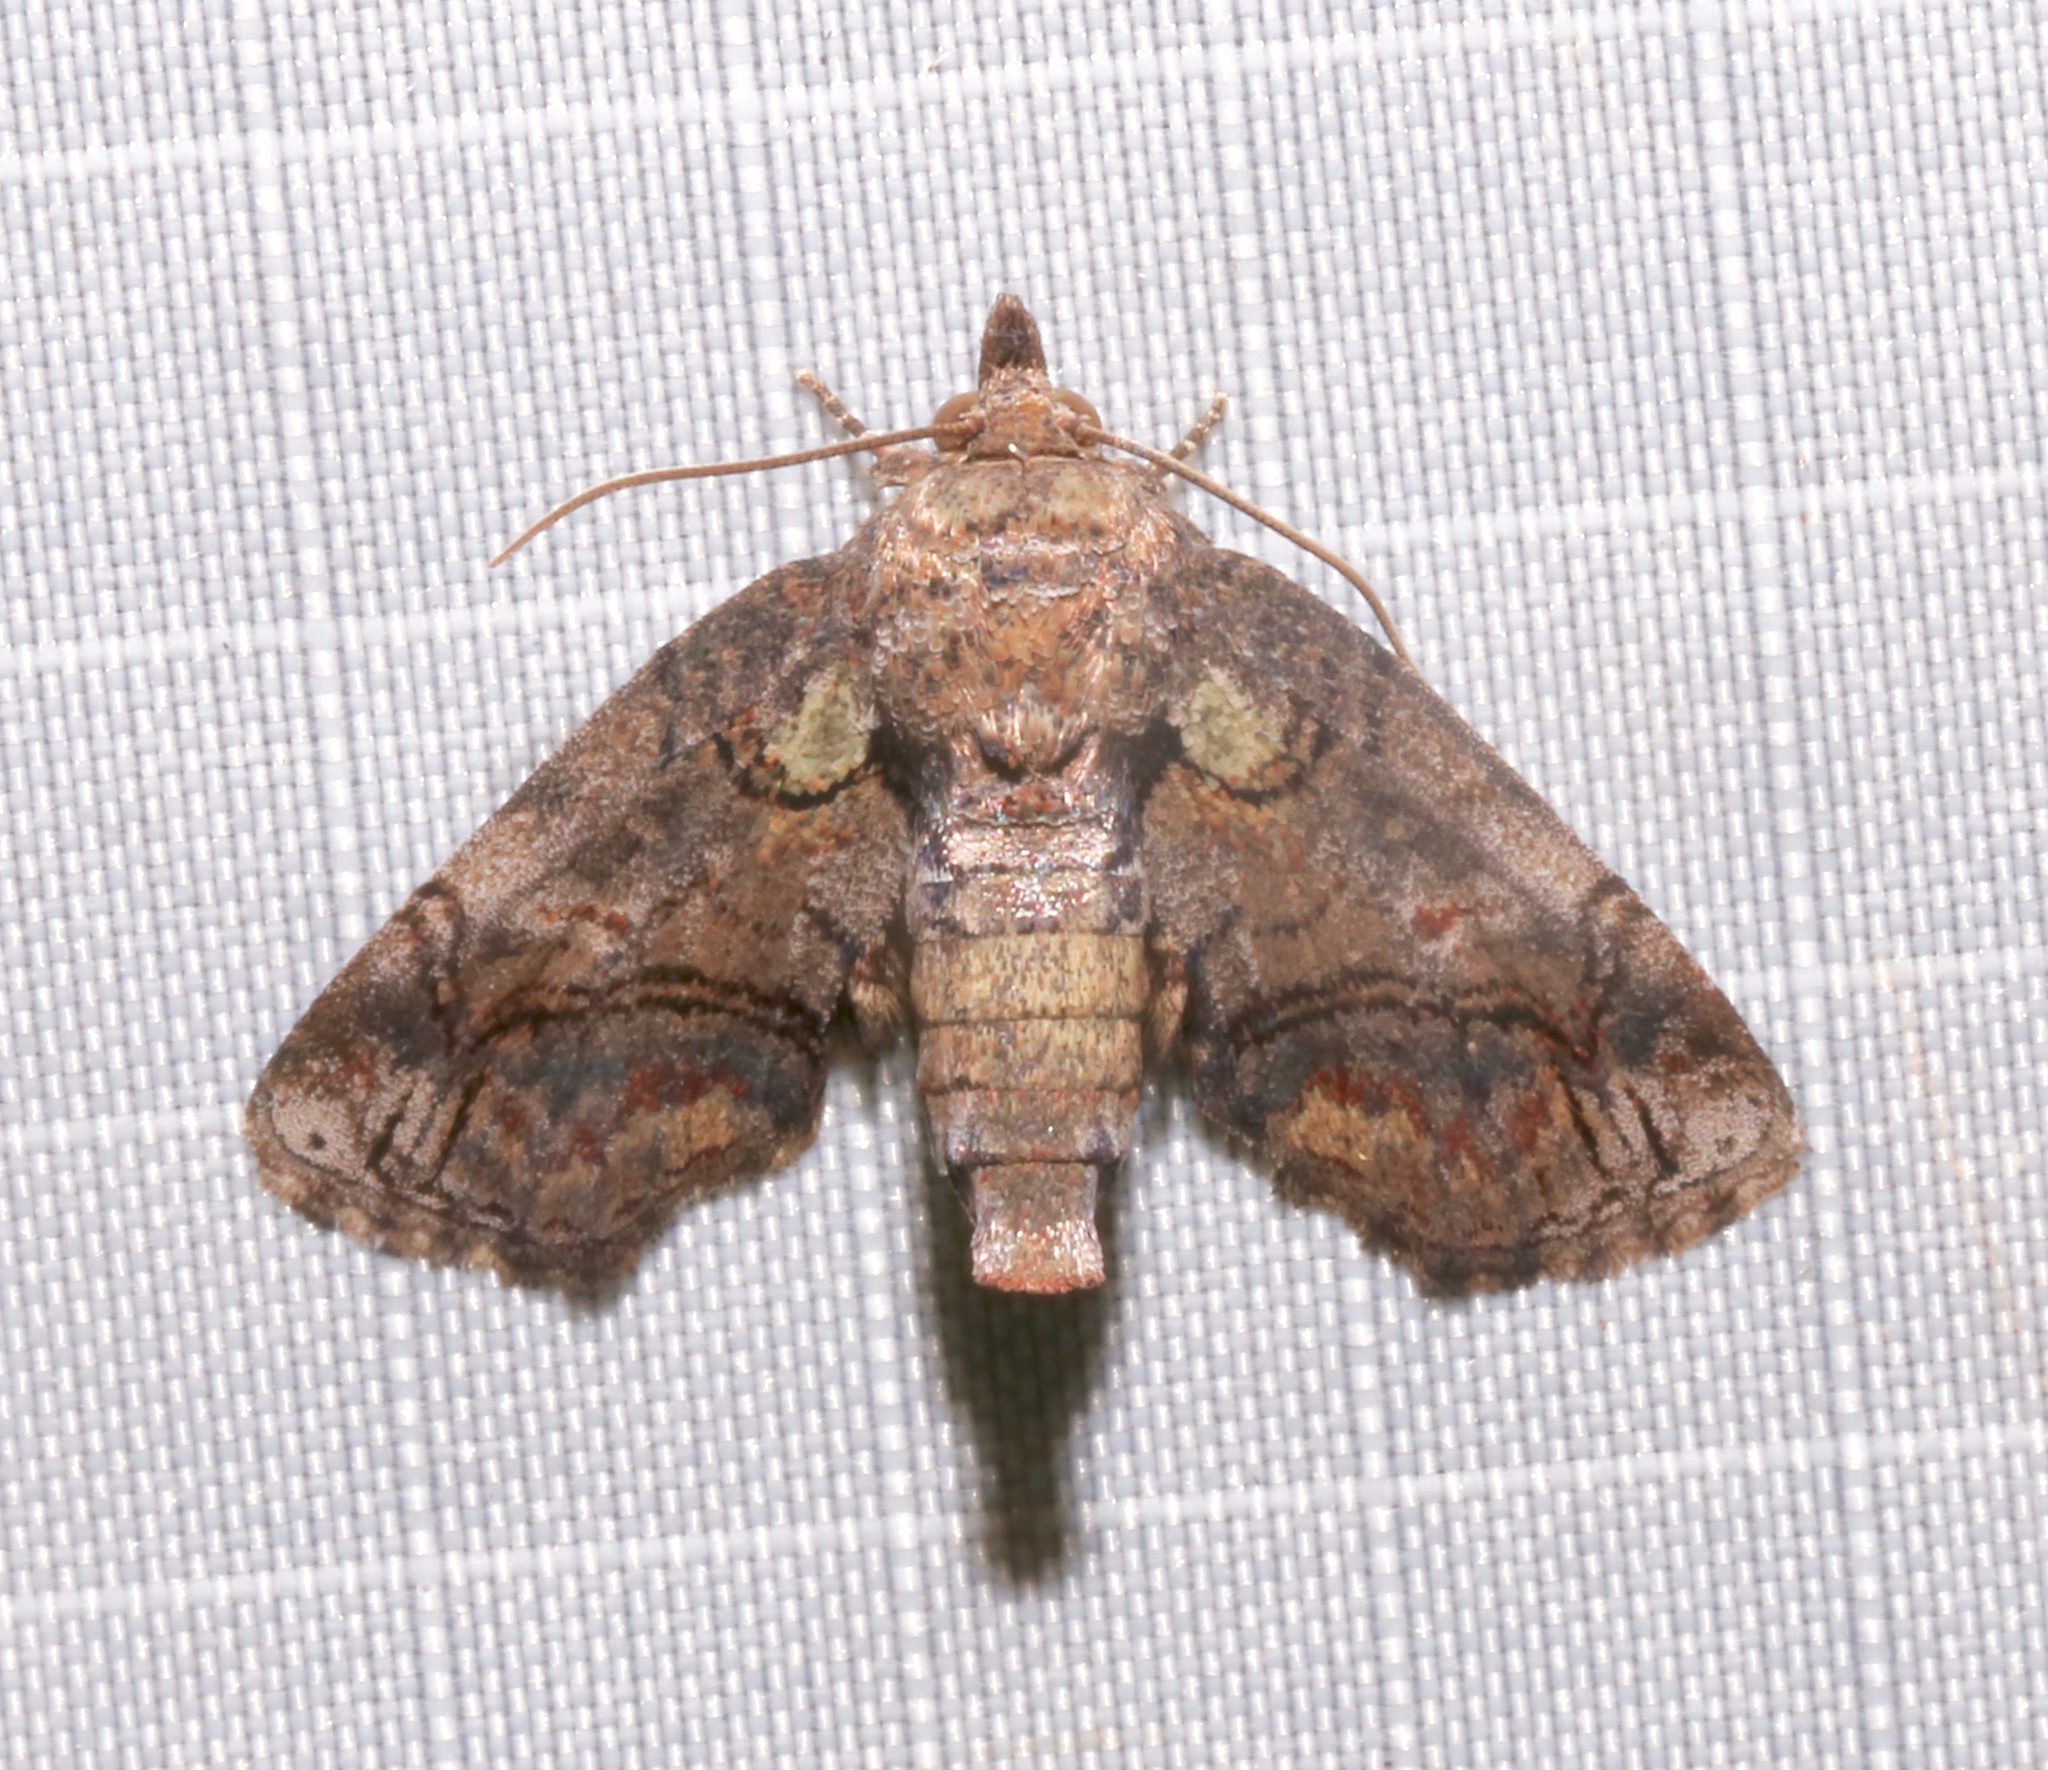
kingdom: Animalia
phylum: Arthropoda
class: Insecta
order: Lepidoptera
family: Euteliidae
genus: Paectes
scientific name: Paectes abrostoloides
